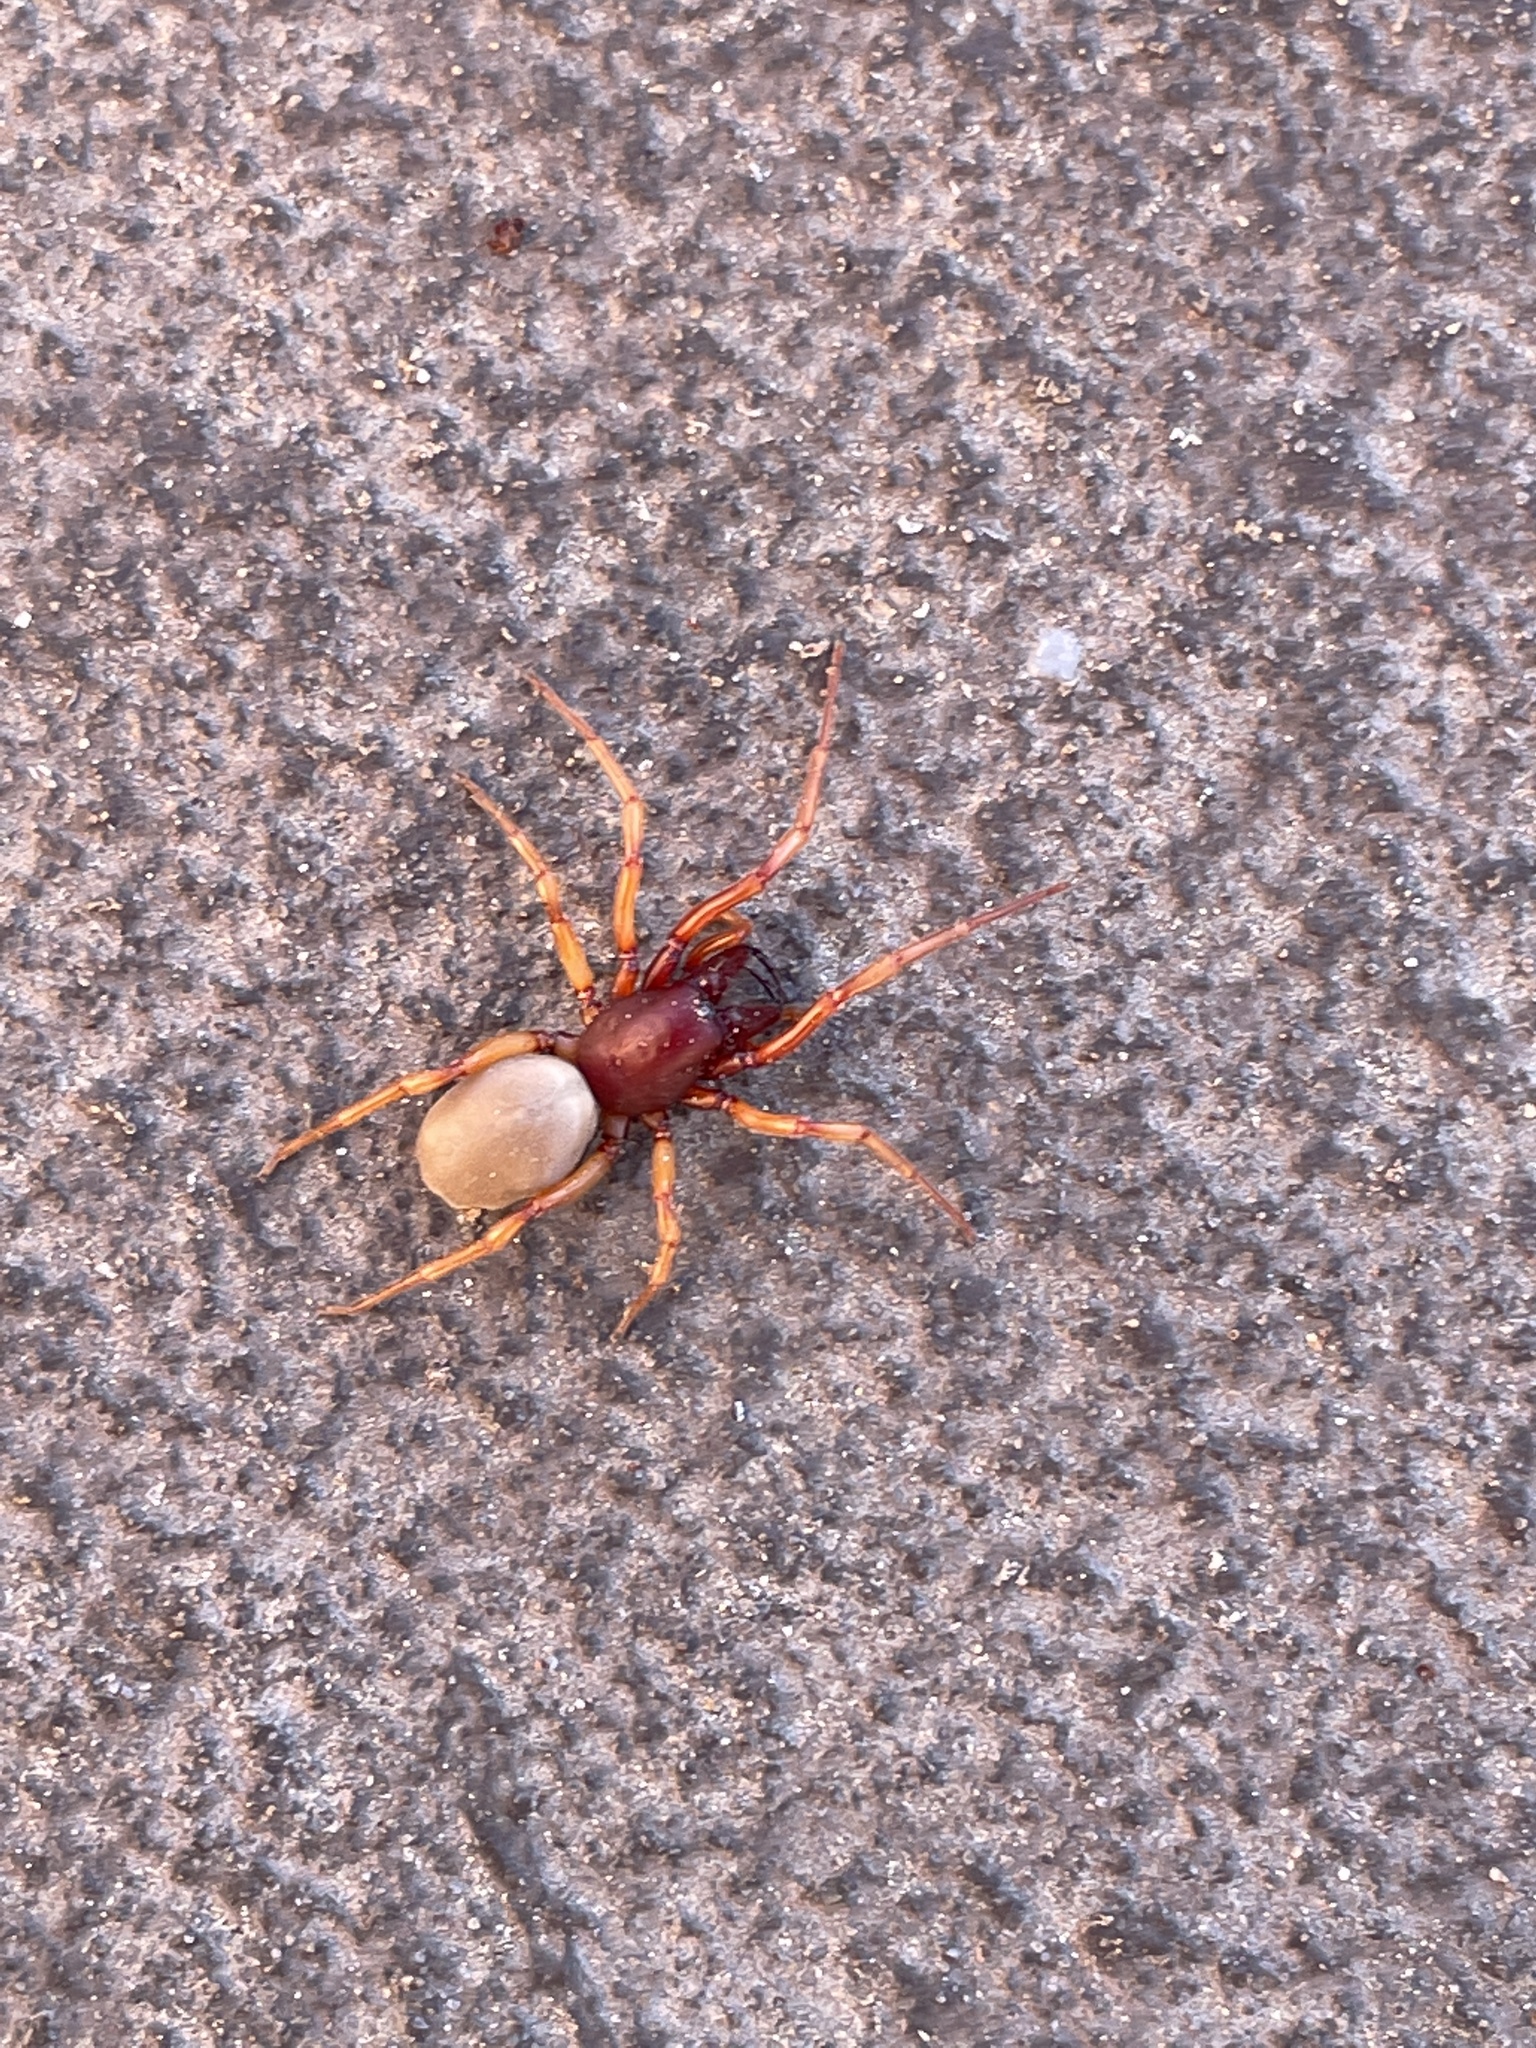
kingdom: Animalia
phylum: Arthropoda
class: Arachnida
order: Araneae
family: Dysderidae
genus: Dysdera
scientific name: Dysdera crocata
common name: Woodlouse spider
